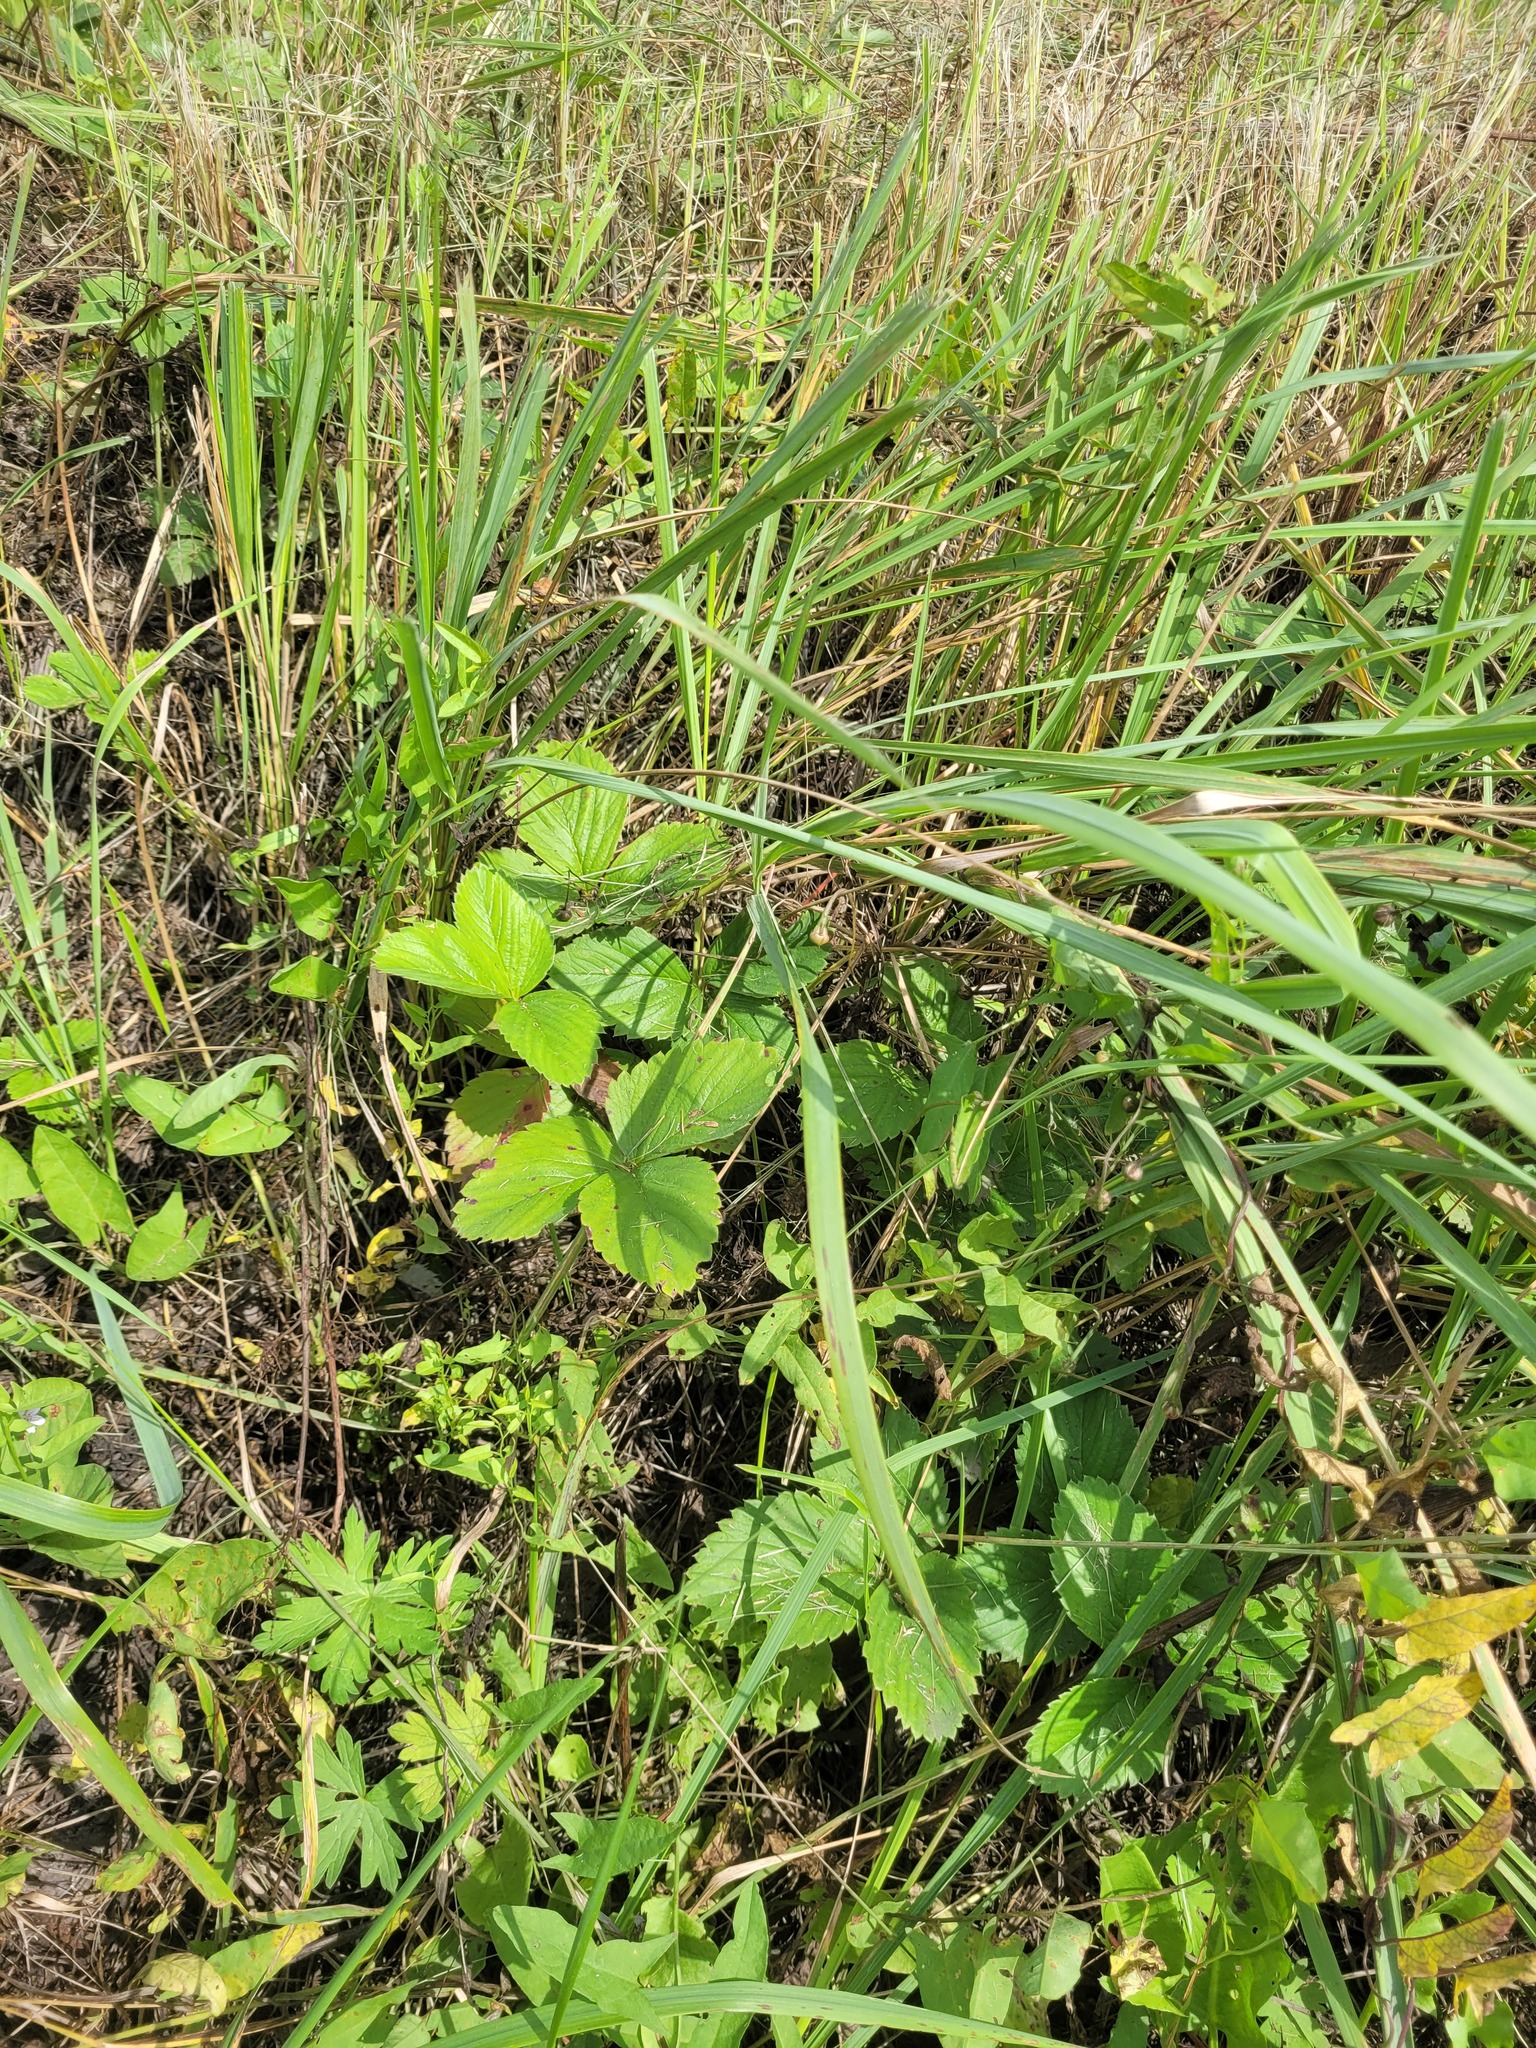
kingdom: Plantae
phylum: Tracheophyta
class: Magnoliopsida
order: Rosales
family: Rosaceae
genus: Fragaria
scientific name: Fragaria ananassa
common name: Garden strawberry
